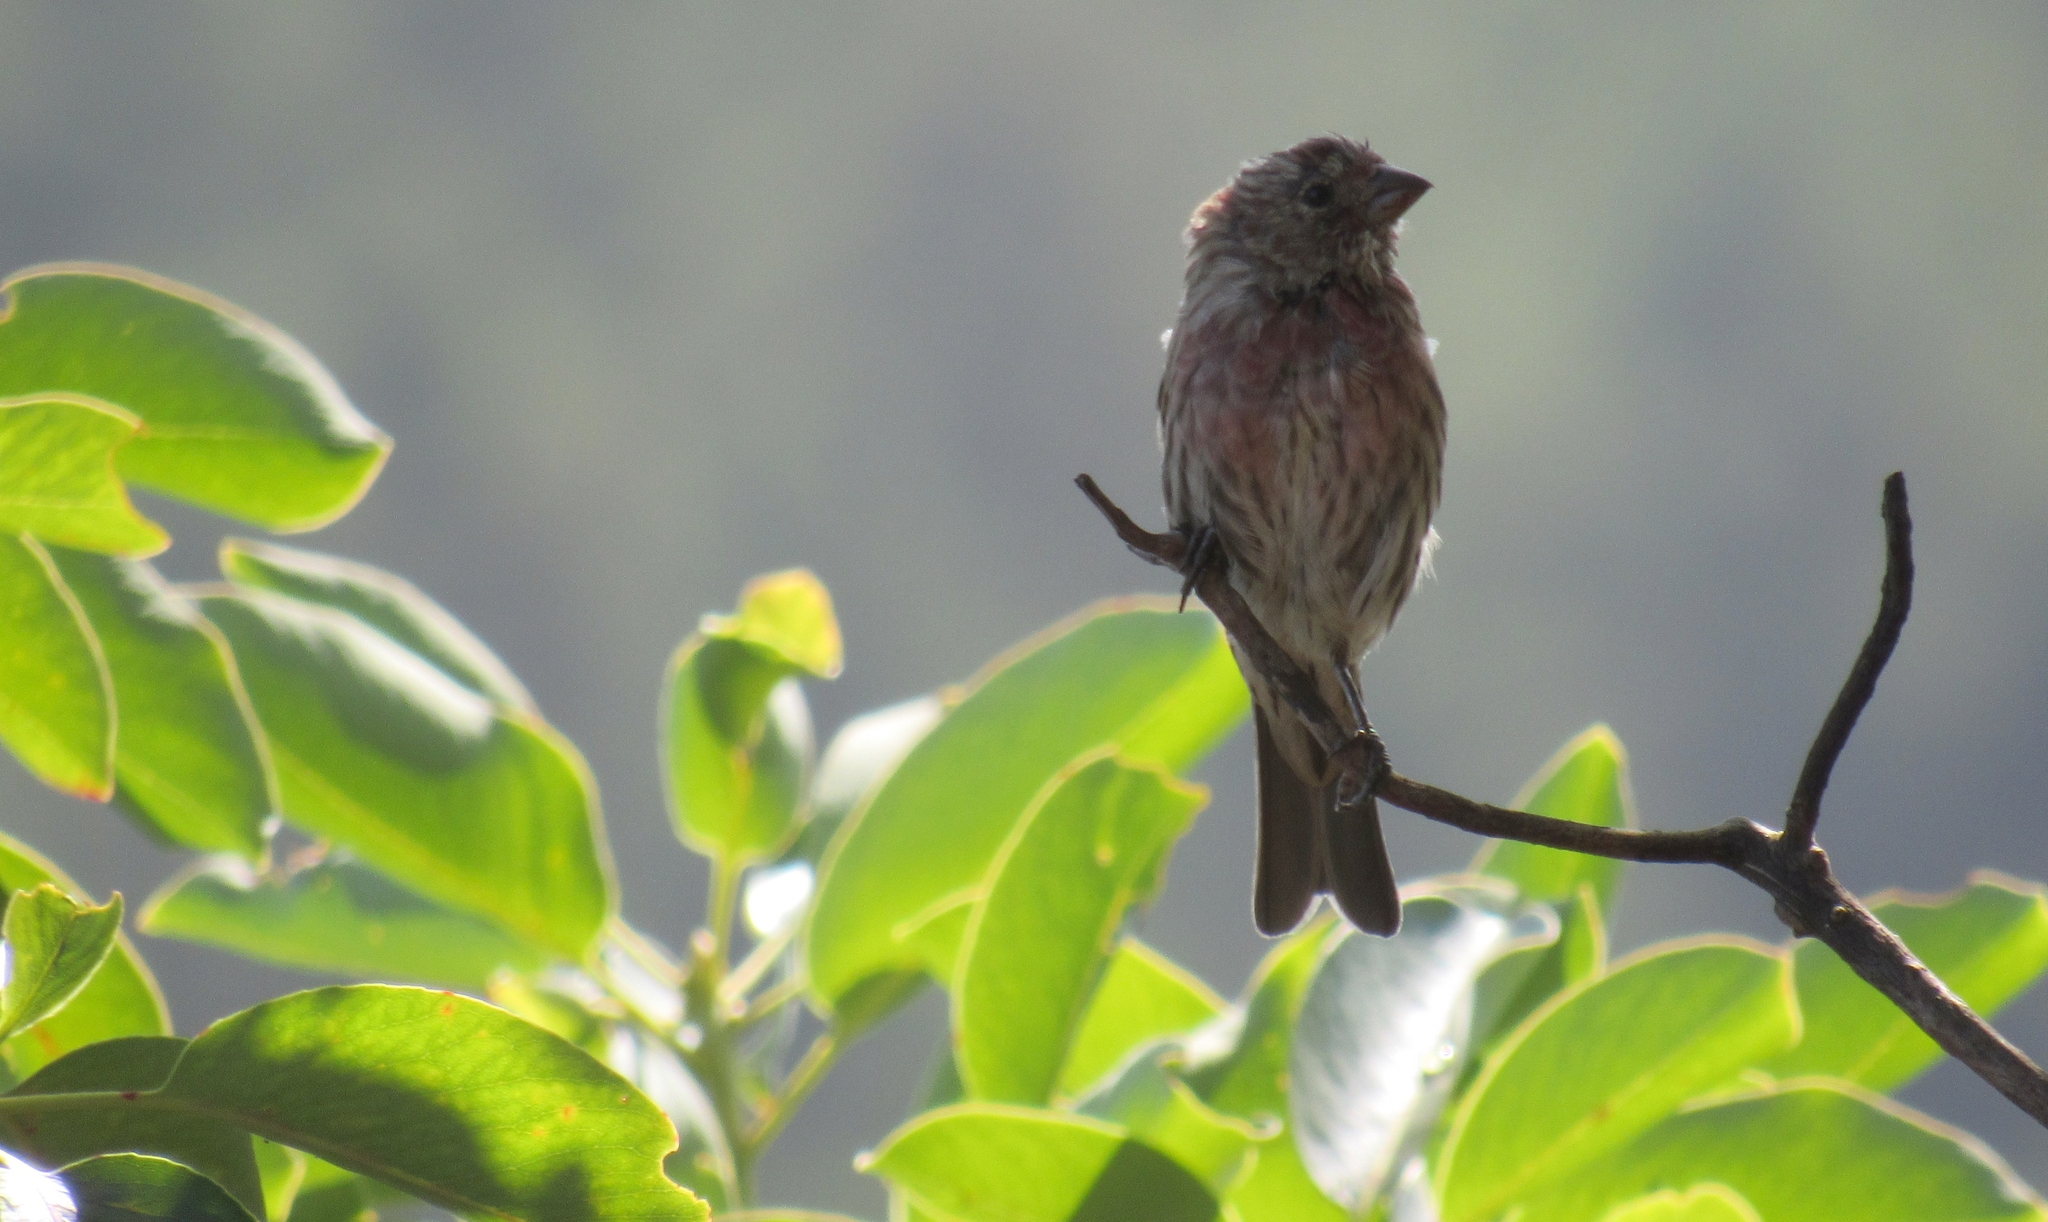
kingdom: Animalia
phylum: Chordata
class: Aves
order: Passeriformes
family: Fringillidae
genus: Haemorhous
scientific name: Haemorhous mexicanus
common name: House finch
